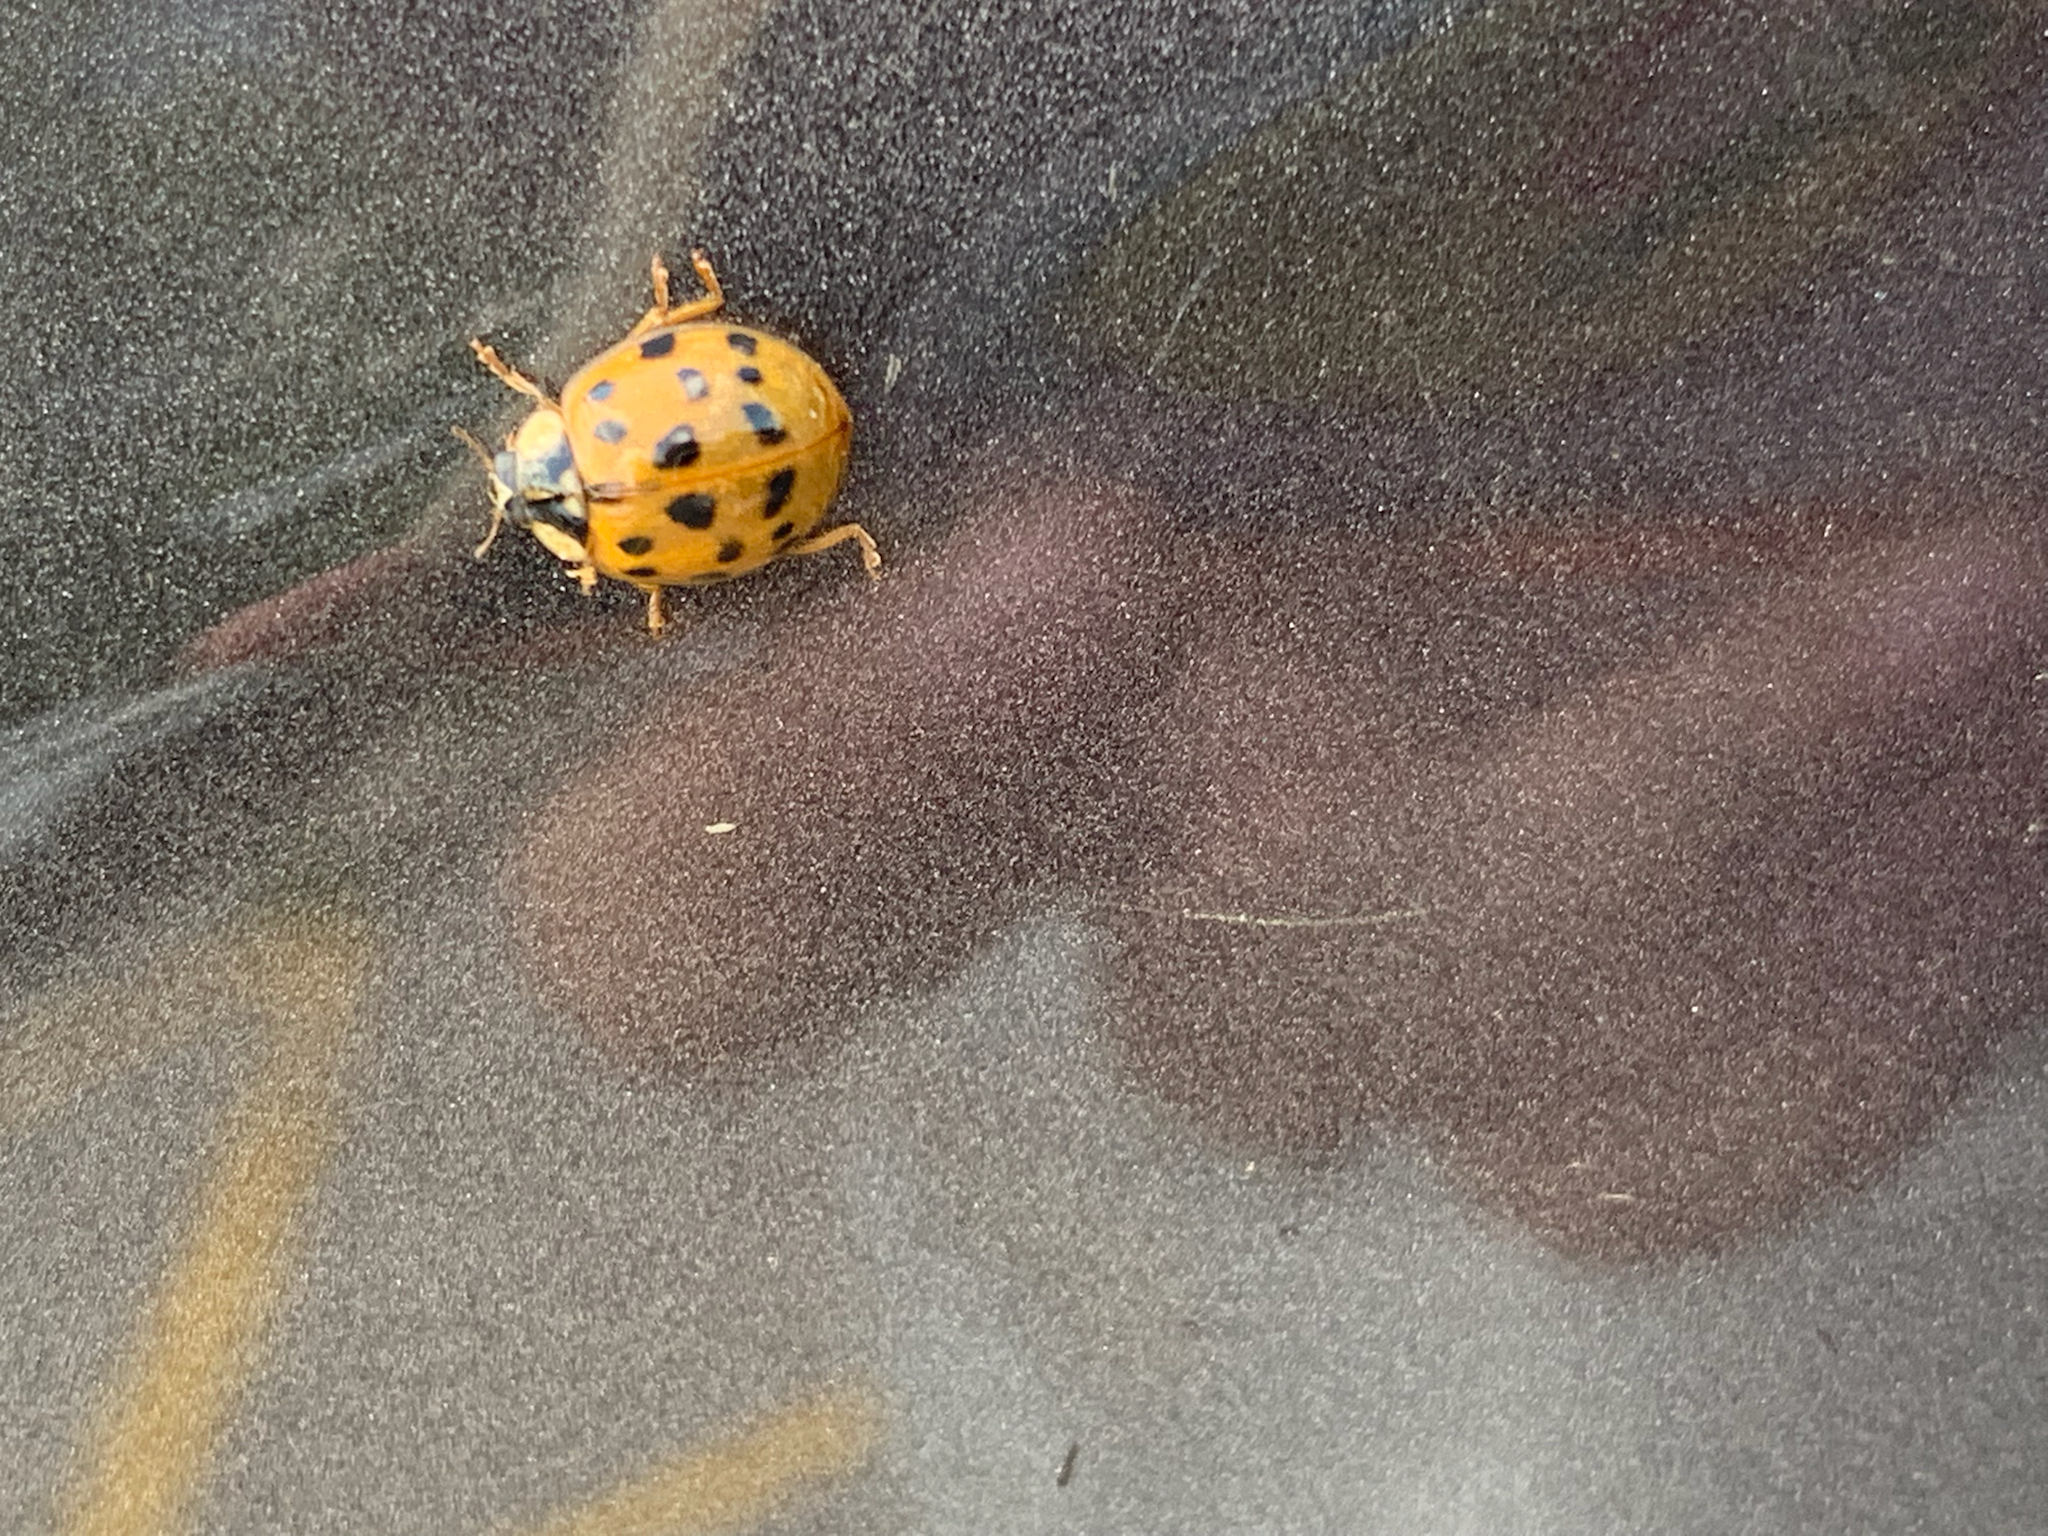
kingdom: Animalia
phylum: Arthropoda
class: Insecta
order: Coleoptera
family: Coccinellidae
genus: Harmonia
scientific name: Harmonia axyridis
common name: Harlequin ladybird
